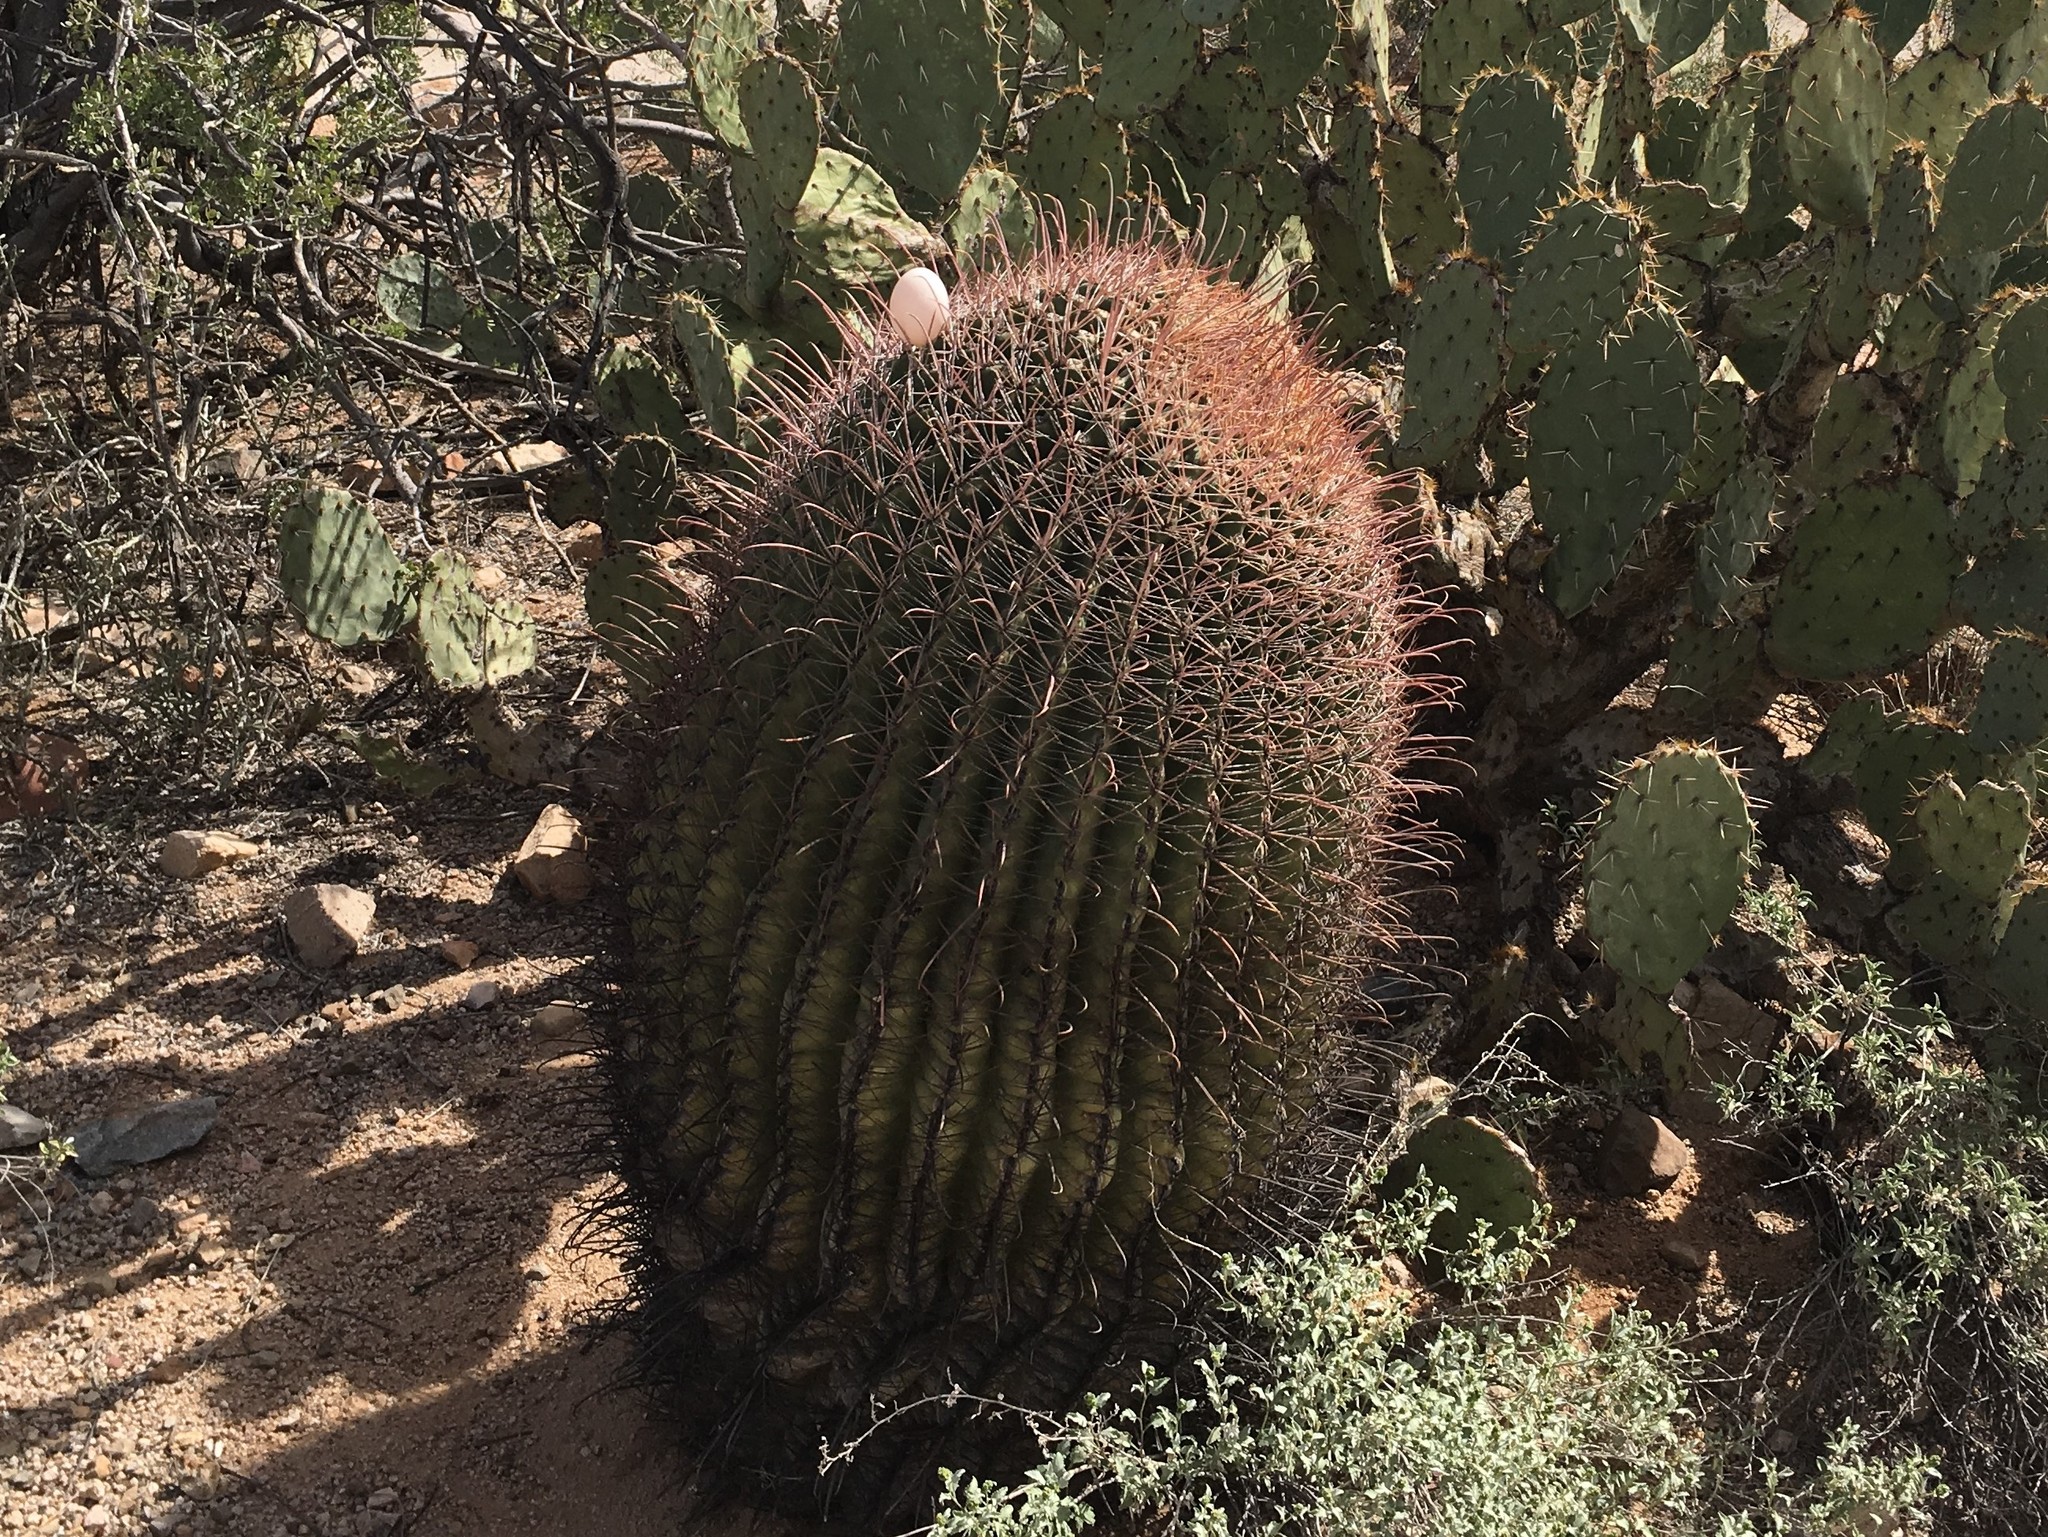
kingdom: Plantae
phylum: Tracheophyta
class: Magnoliopsida
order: Caryophyllales
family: Cactaceae
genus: Ferocactus
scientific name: Ferocactus wislizeni
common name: Candy barrel cactus
